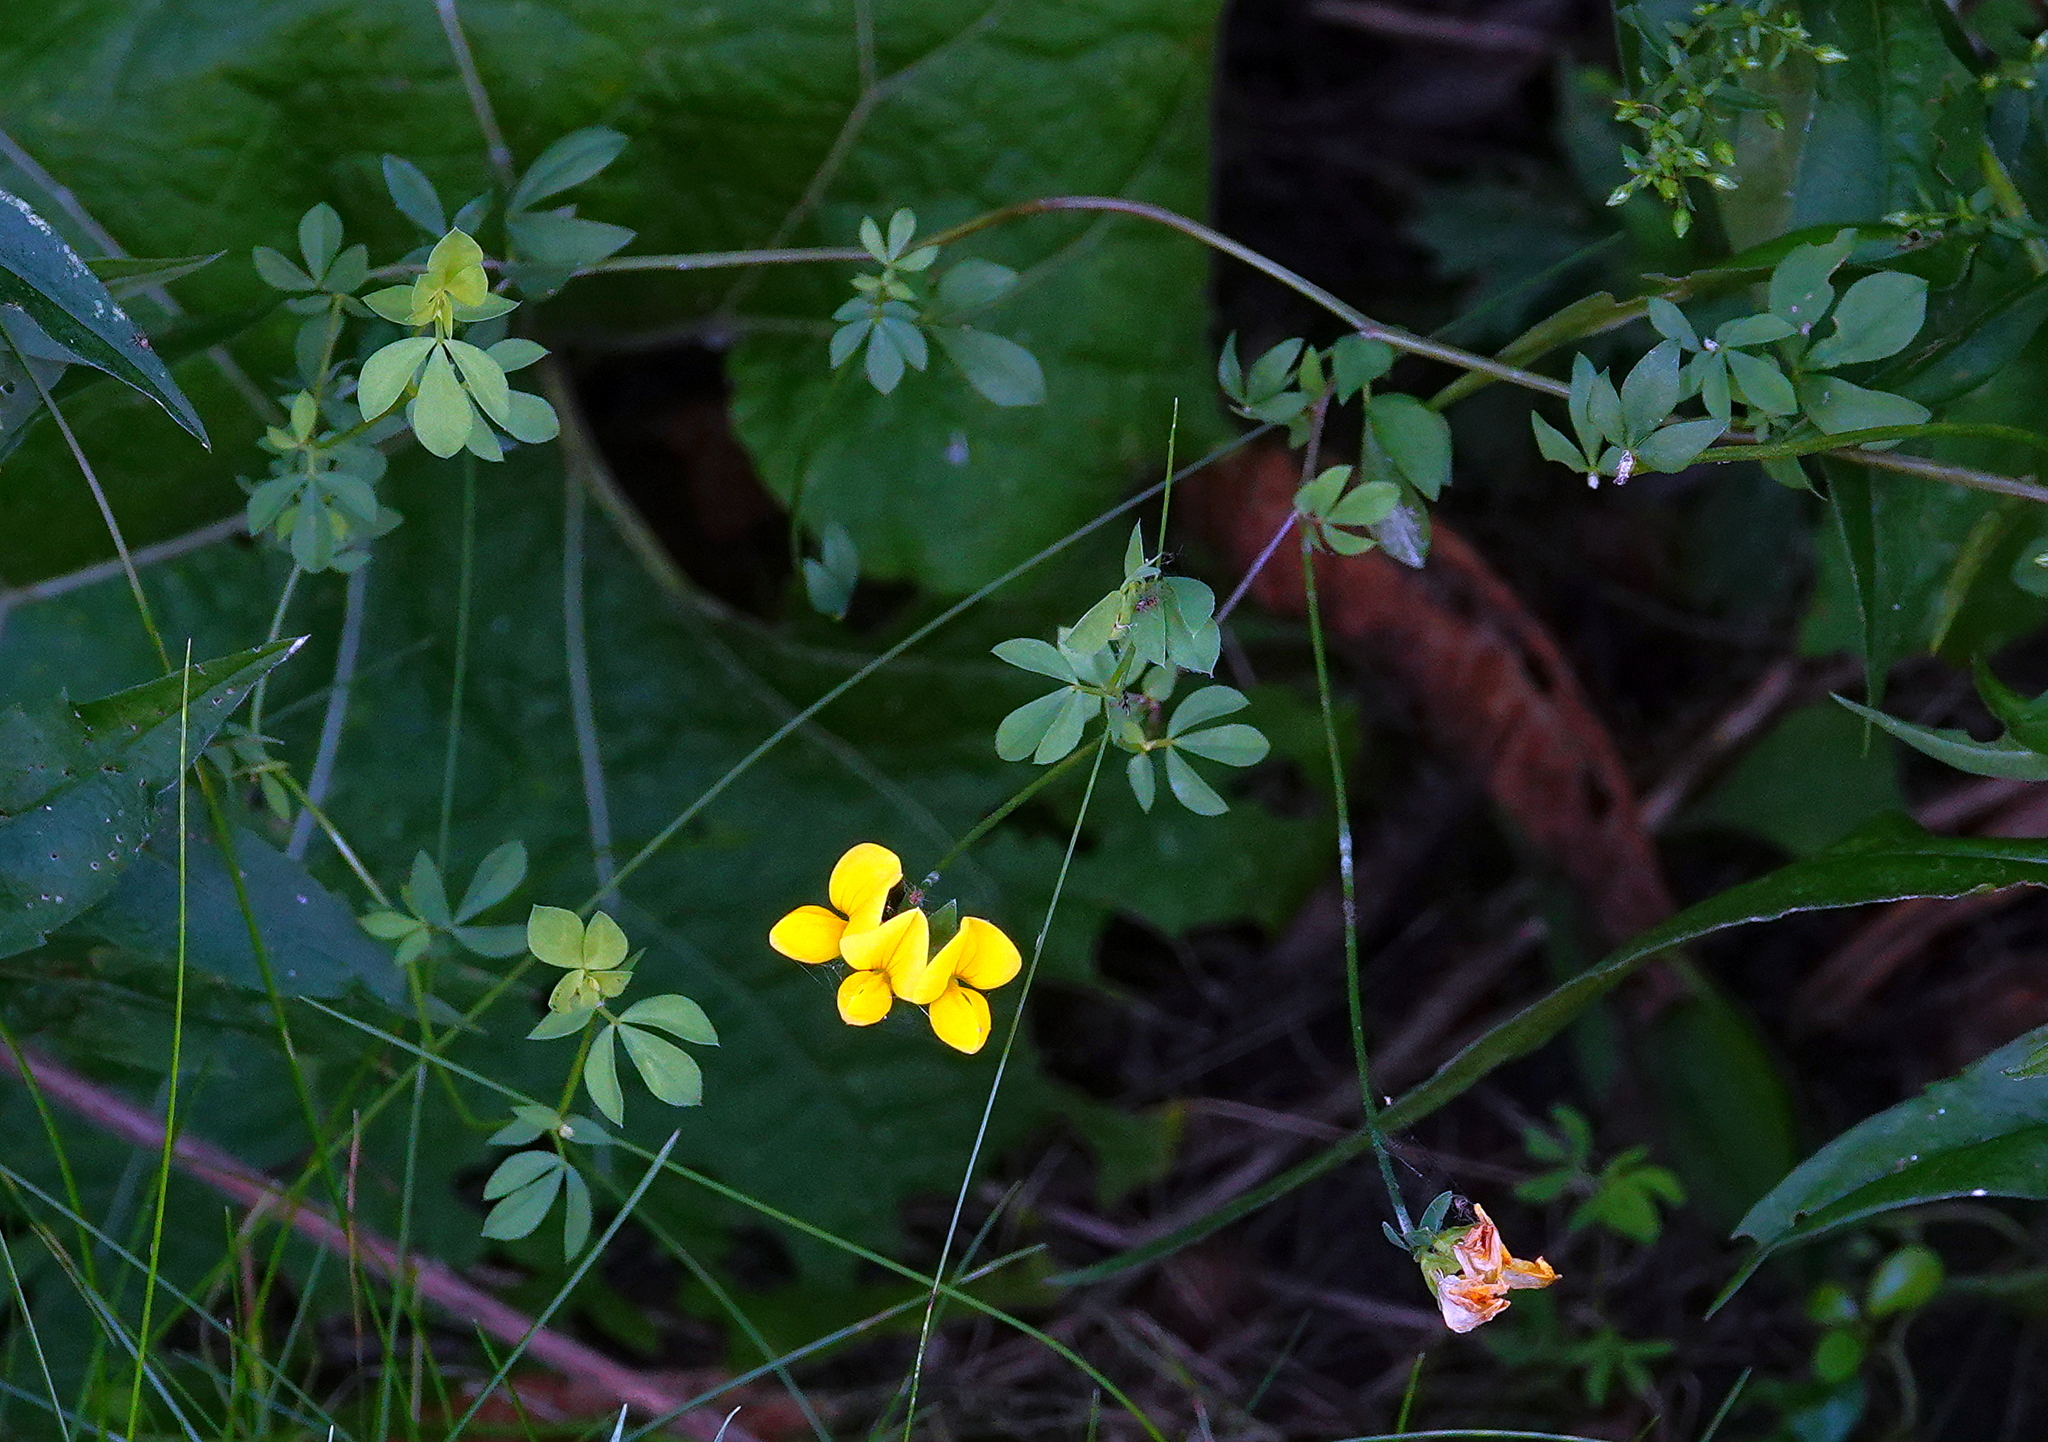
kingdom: Plantae
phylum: Tracheophyta
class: Magnoliopsida
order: Fabales
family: Fabaceae
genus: Lotus
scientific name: Lotus corniculatus
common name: Common bird's-foot-trefoil
